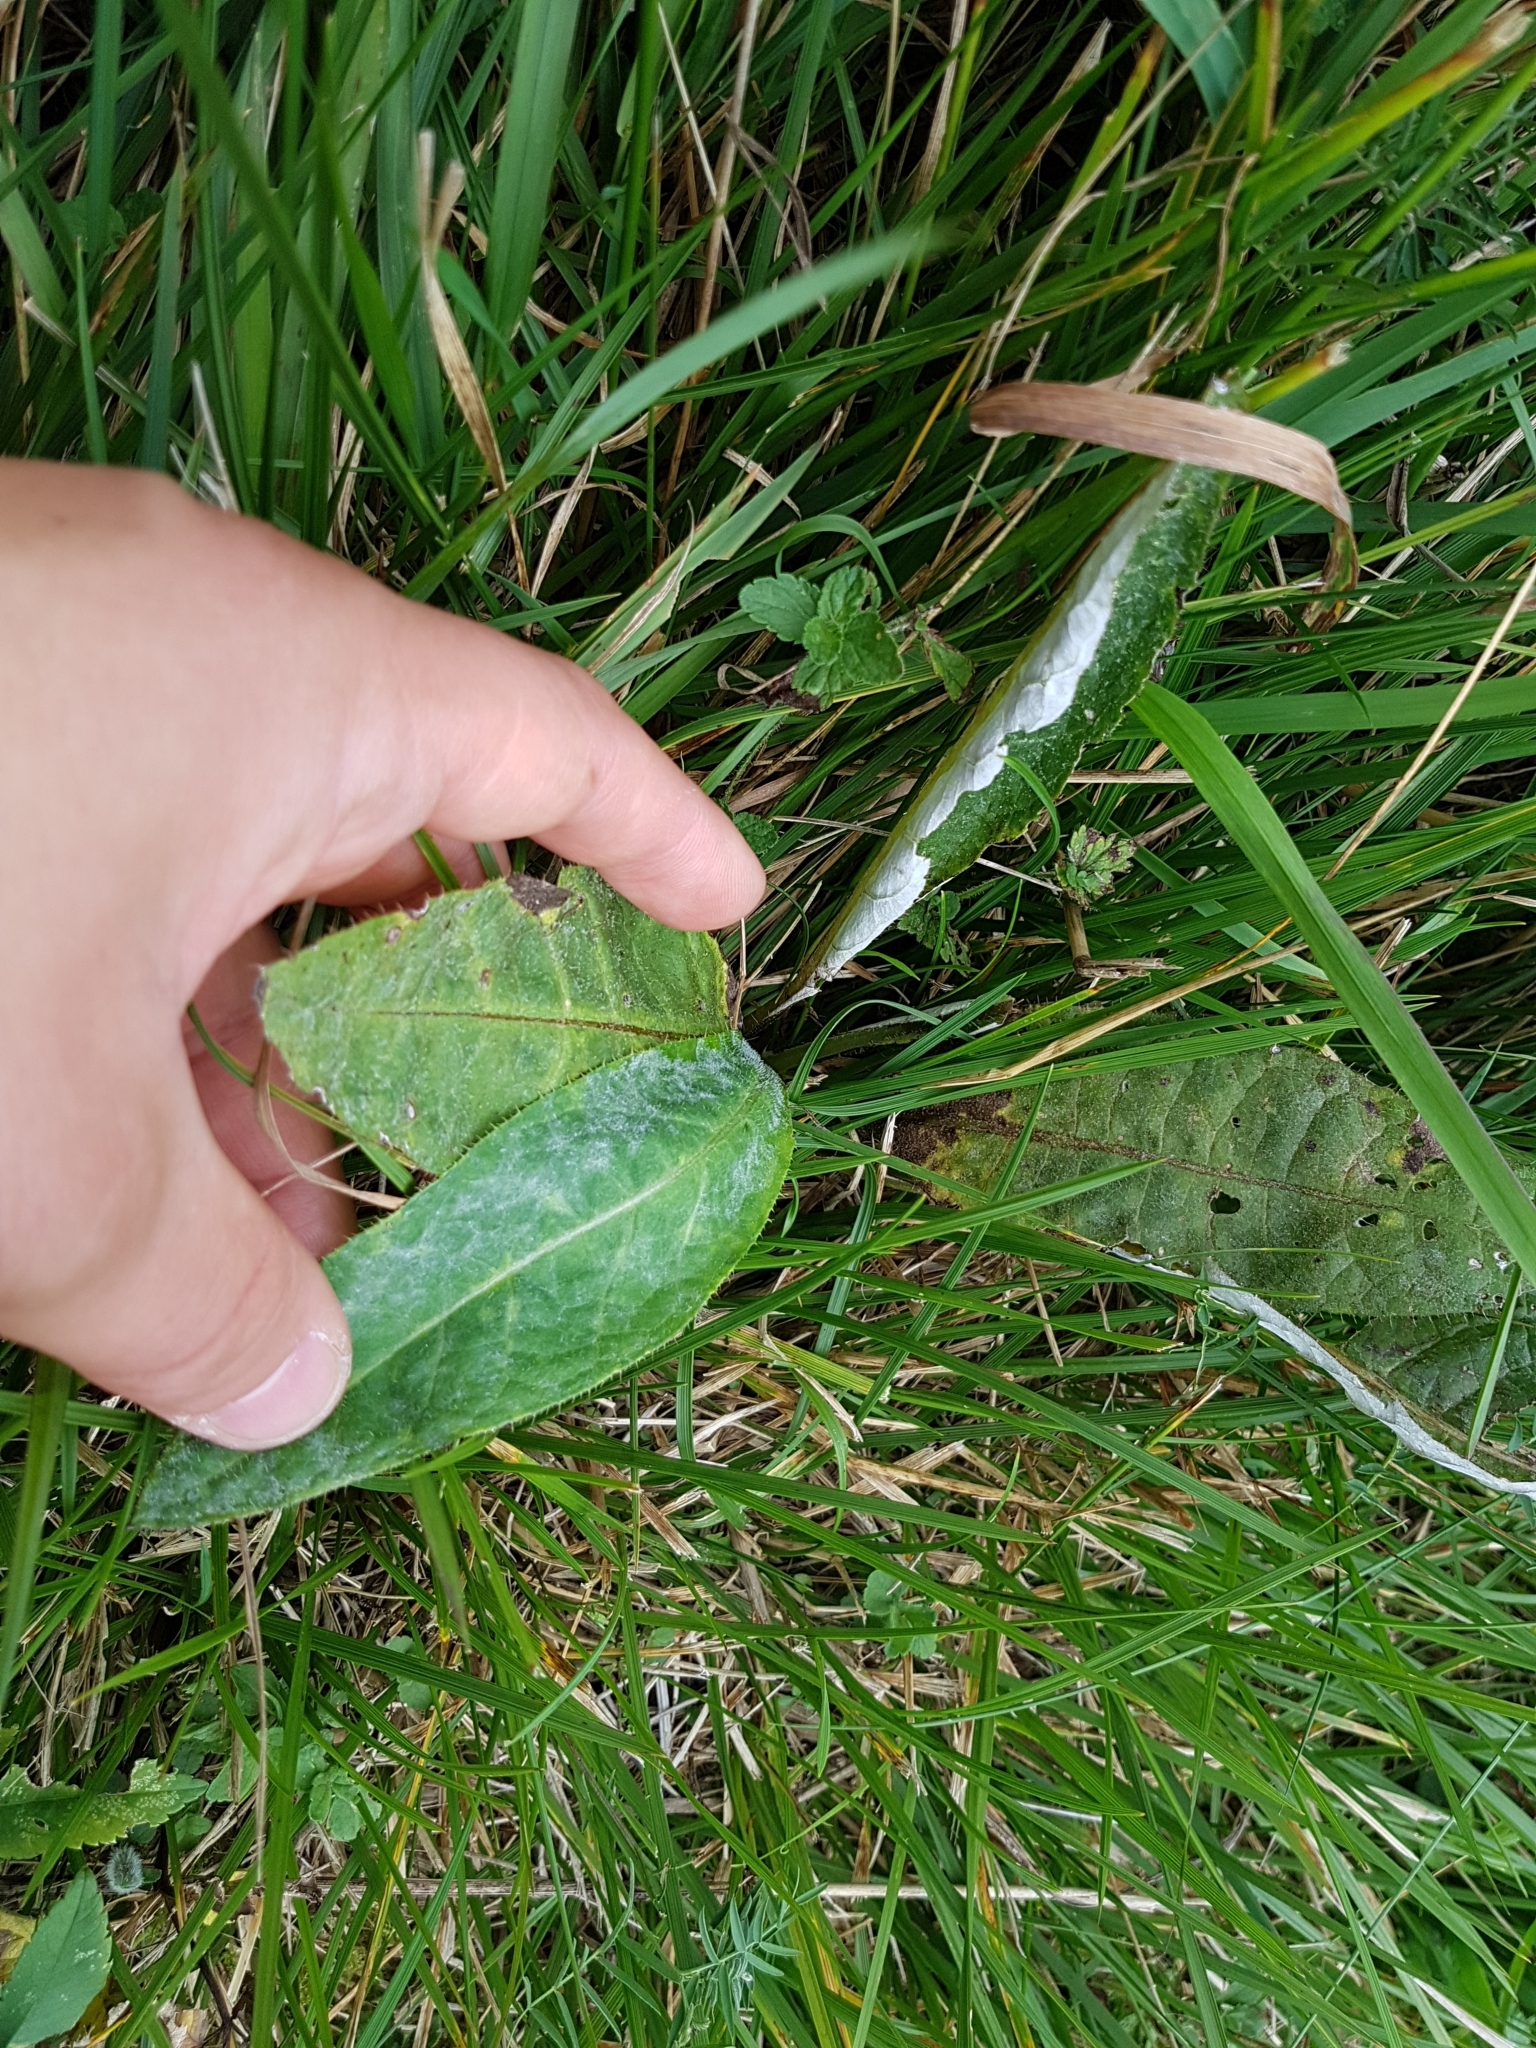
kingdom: Plantae
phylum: Tracheophyta
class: Magnoliopsida
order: Asterales
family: Asteraceae
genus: Cirsium
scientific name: Cirsium heterophyllum
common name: Melancholy thistle
